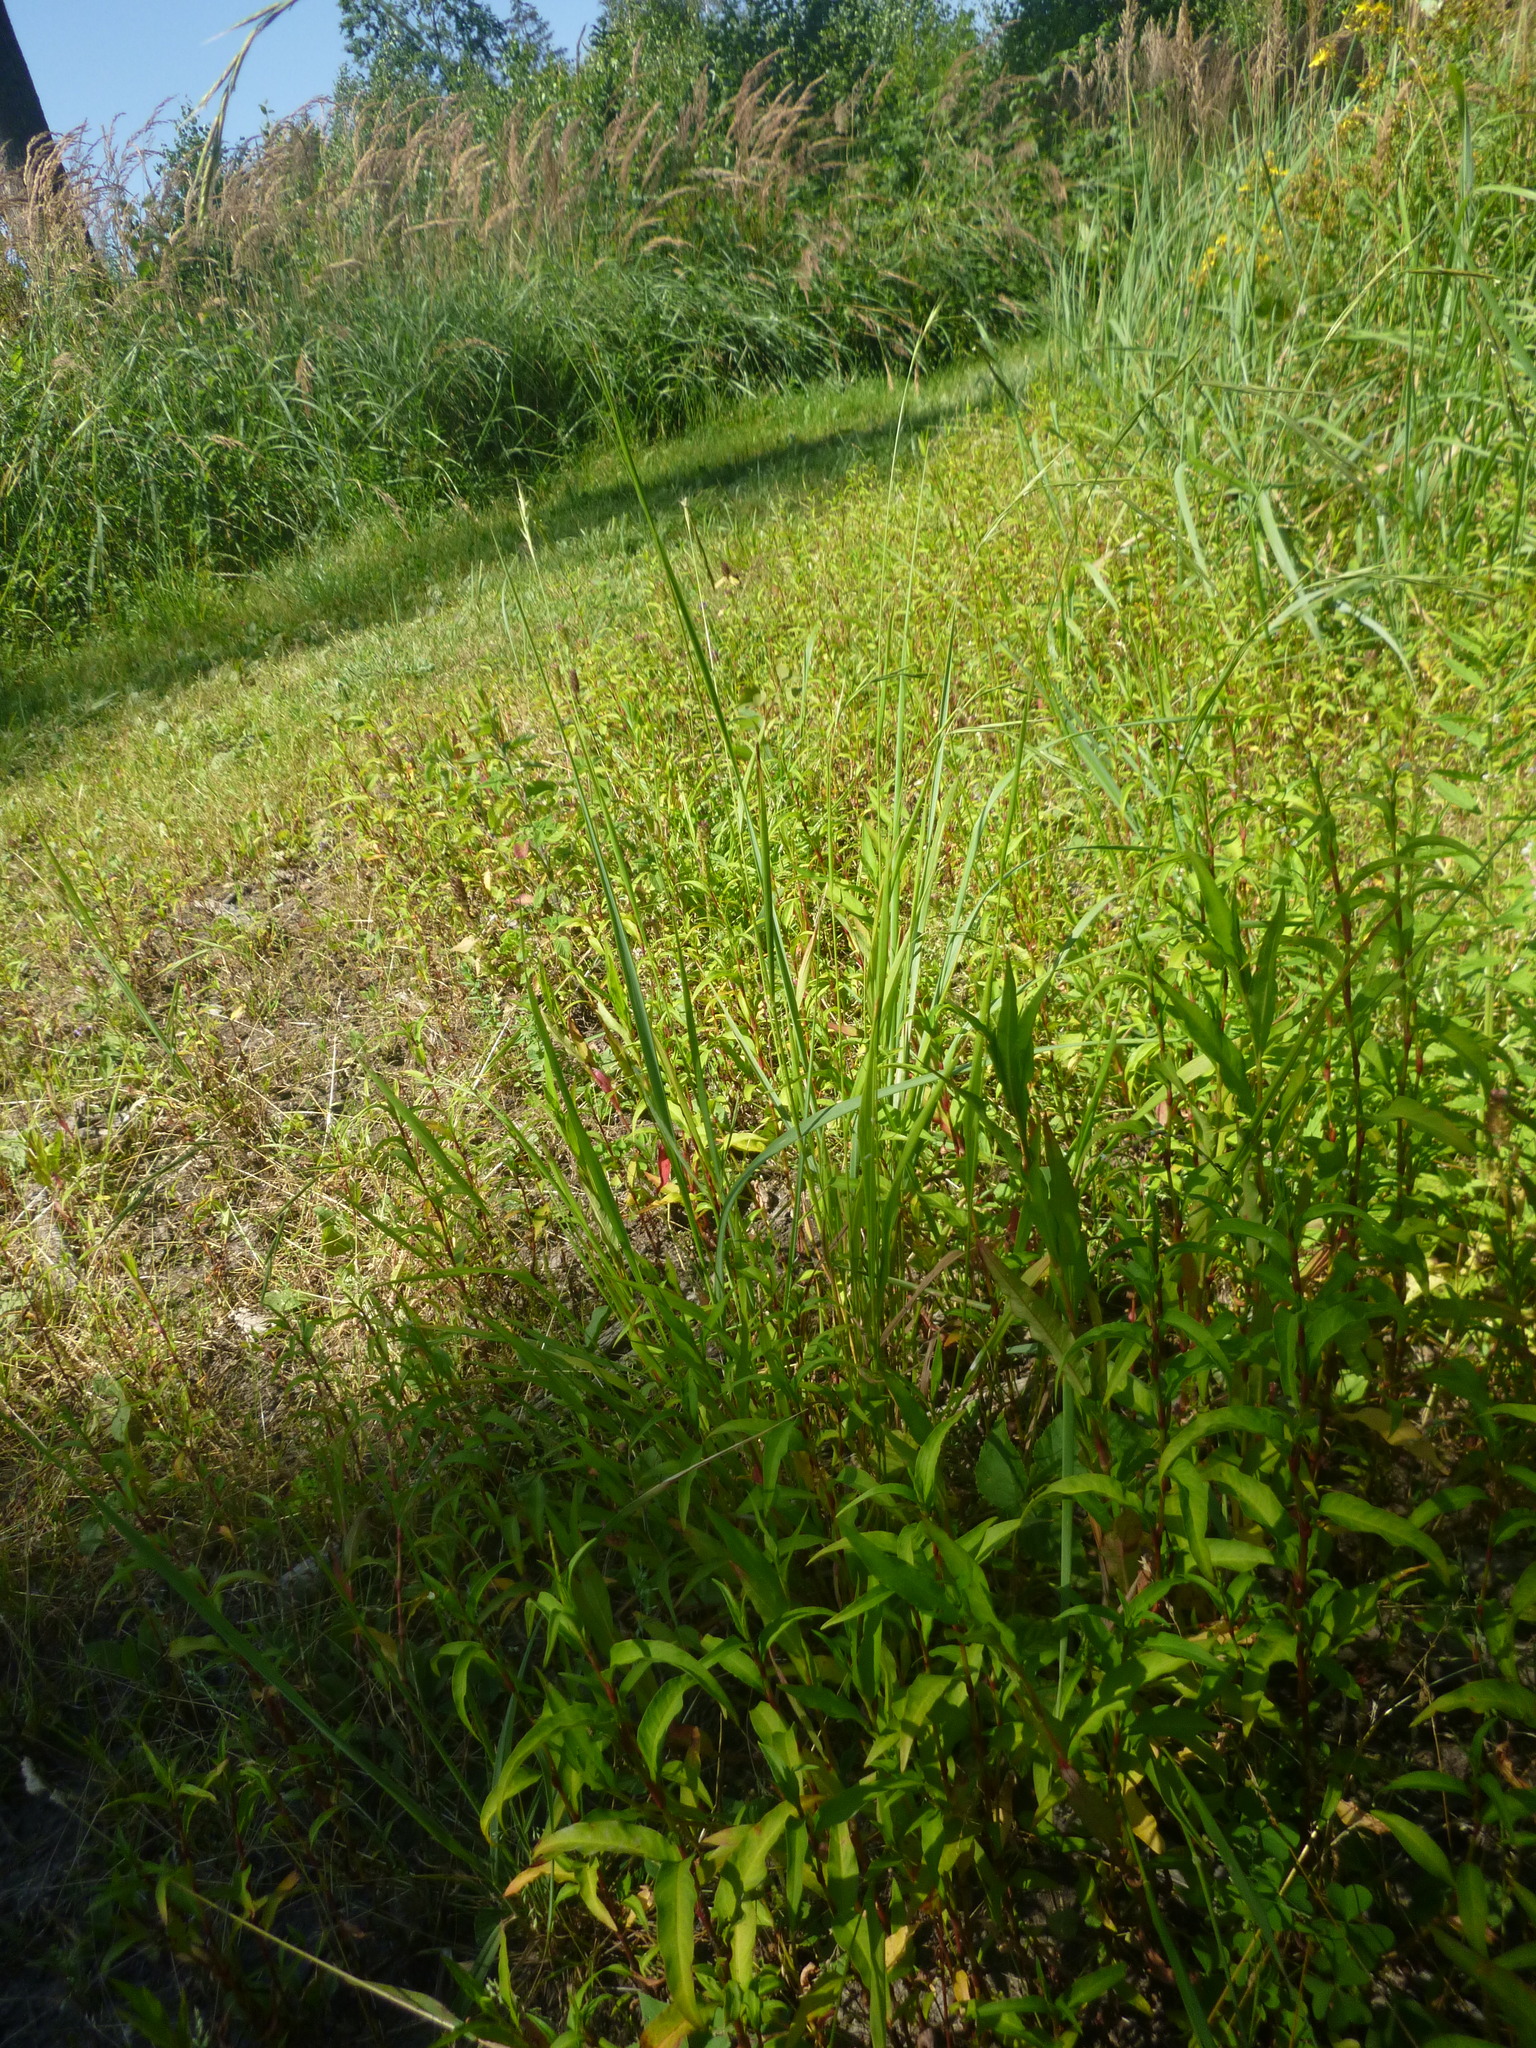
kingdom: Plantae
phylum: Tracheophyta
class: Liliopsida
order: Poales
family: Poaceae
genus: Brachypodium
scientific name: Brachypodium sylvaticum
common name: False-brome
